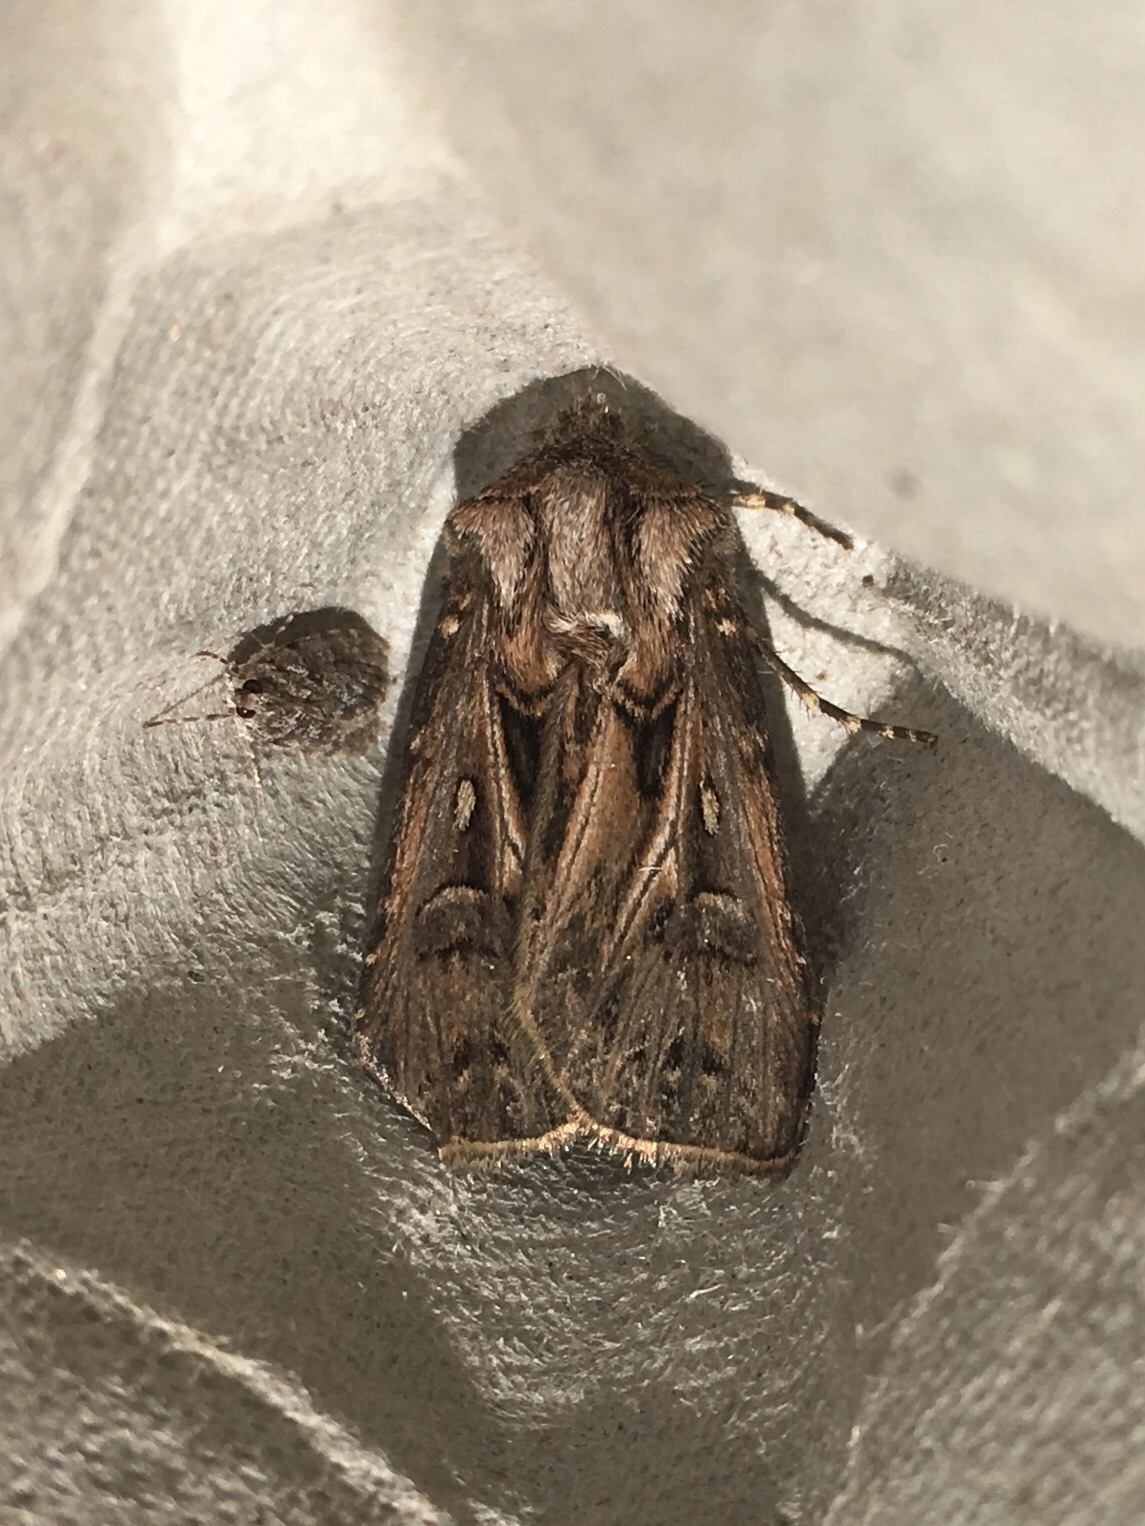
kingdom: Animalia
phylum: Arthropoda
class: Insecta
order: Lepidoptera
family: Noctuidae
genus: Agrotis
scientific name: Agrotis gladiaria
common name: Claybacked cutworm
